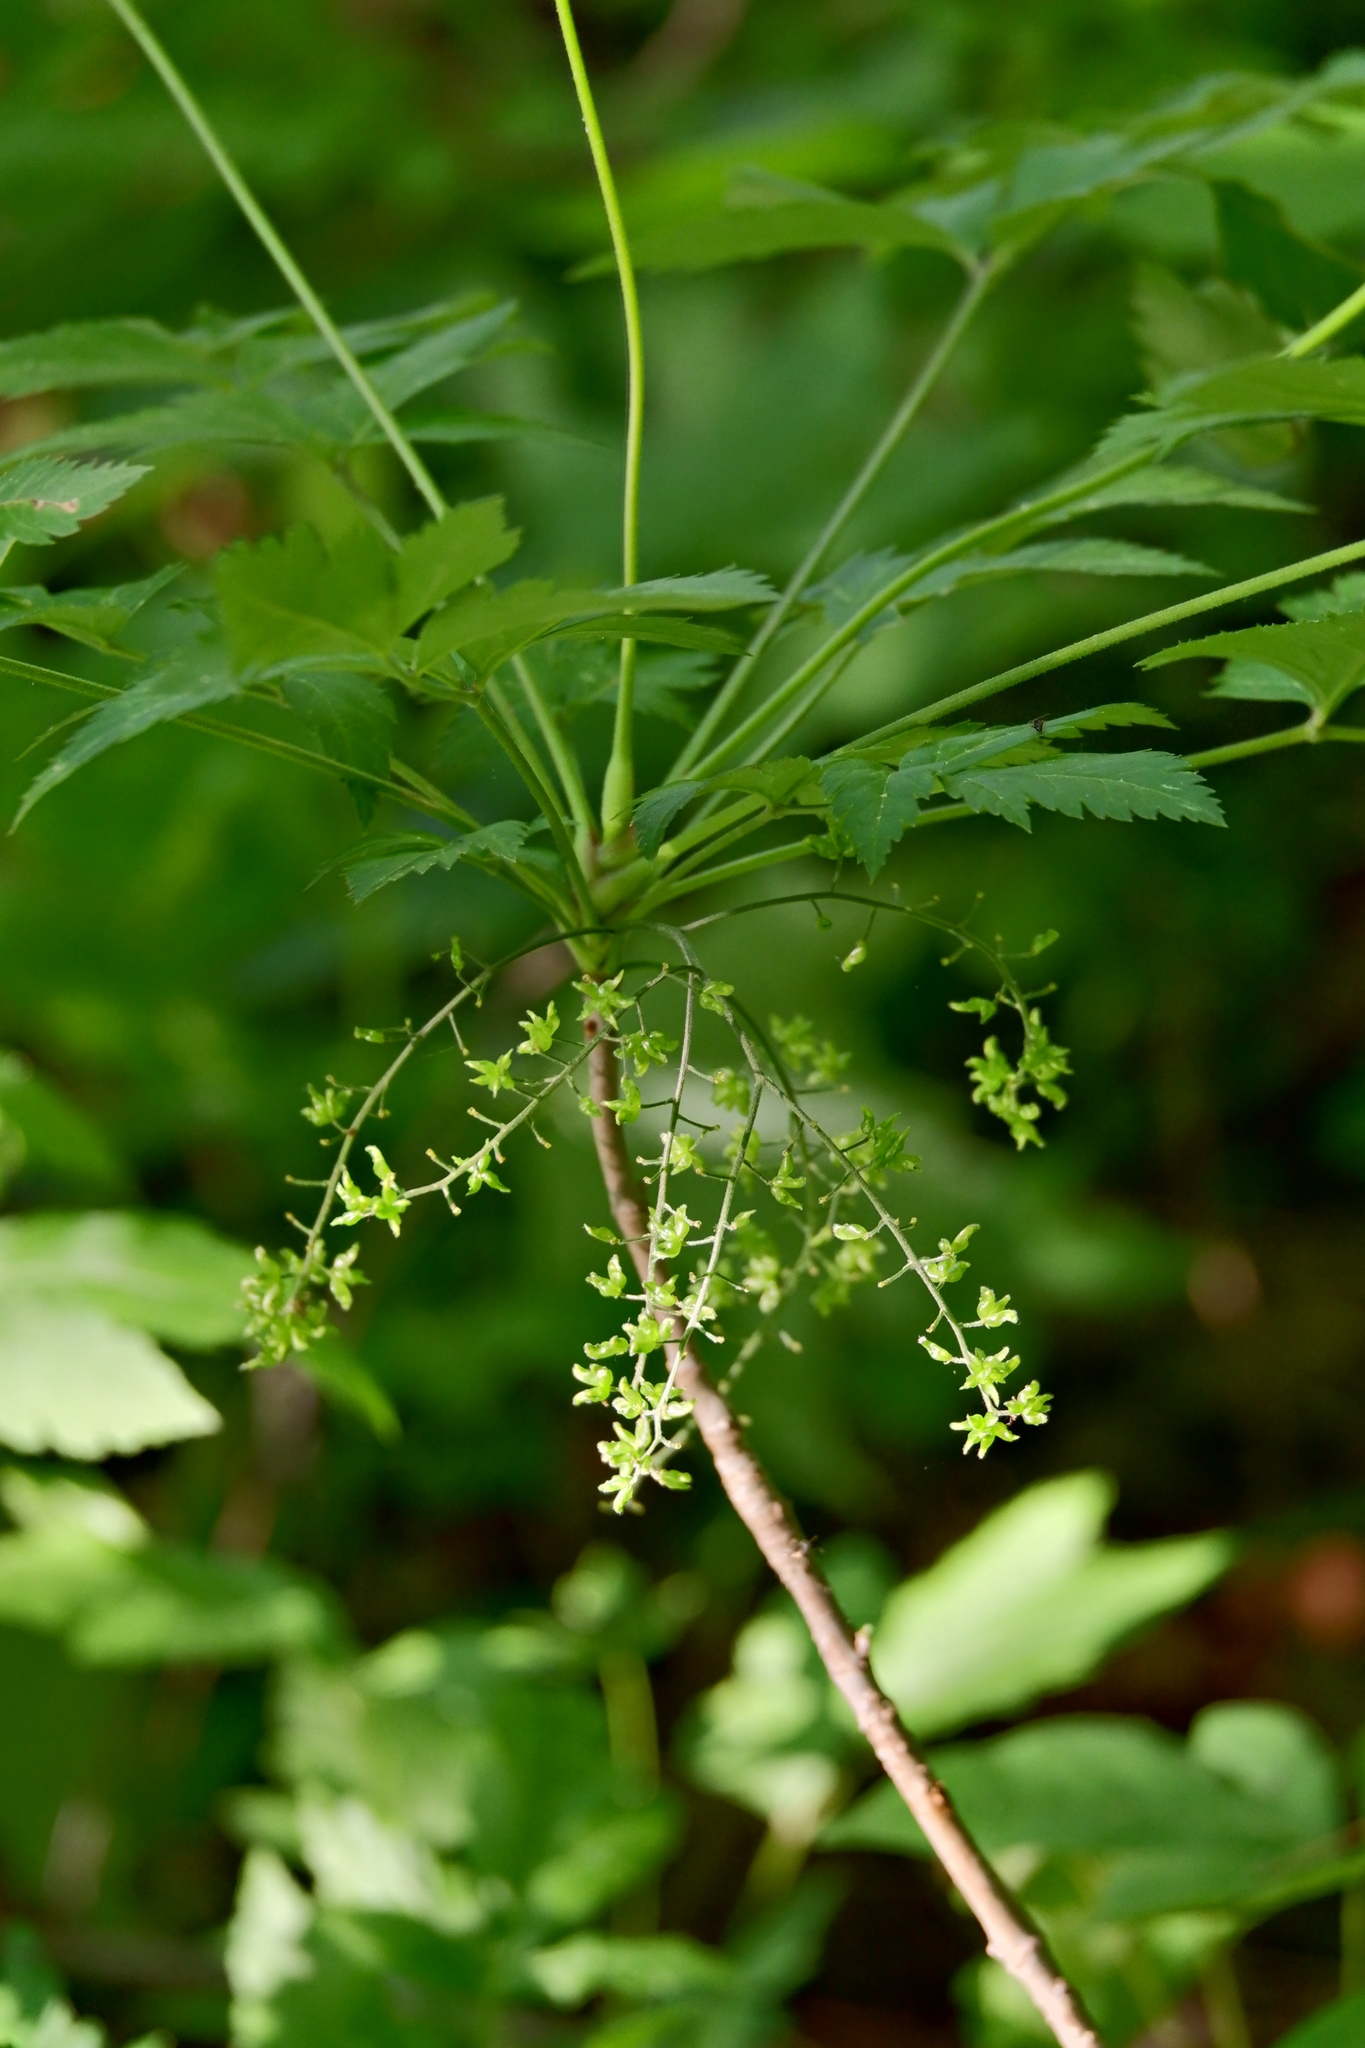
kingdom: Plantae
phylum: Tracheophyta
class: Magnoliopsida
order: Ranunculales
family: Ranunculaceae
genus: Xanthorhiza
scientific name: Xanthorhiza simplicissima
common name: Yellowroot
